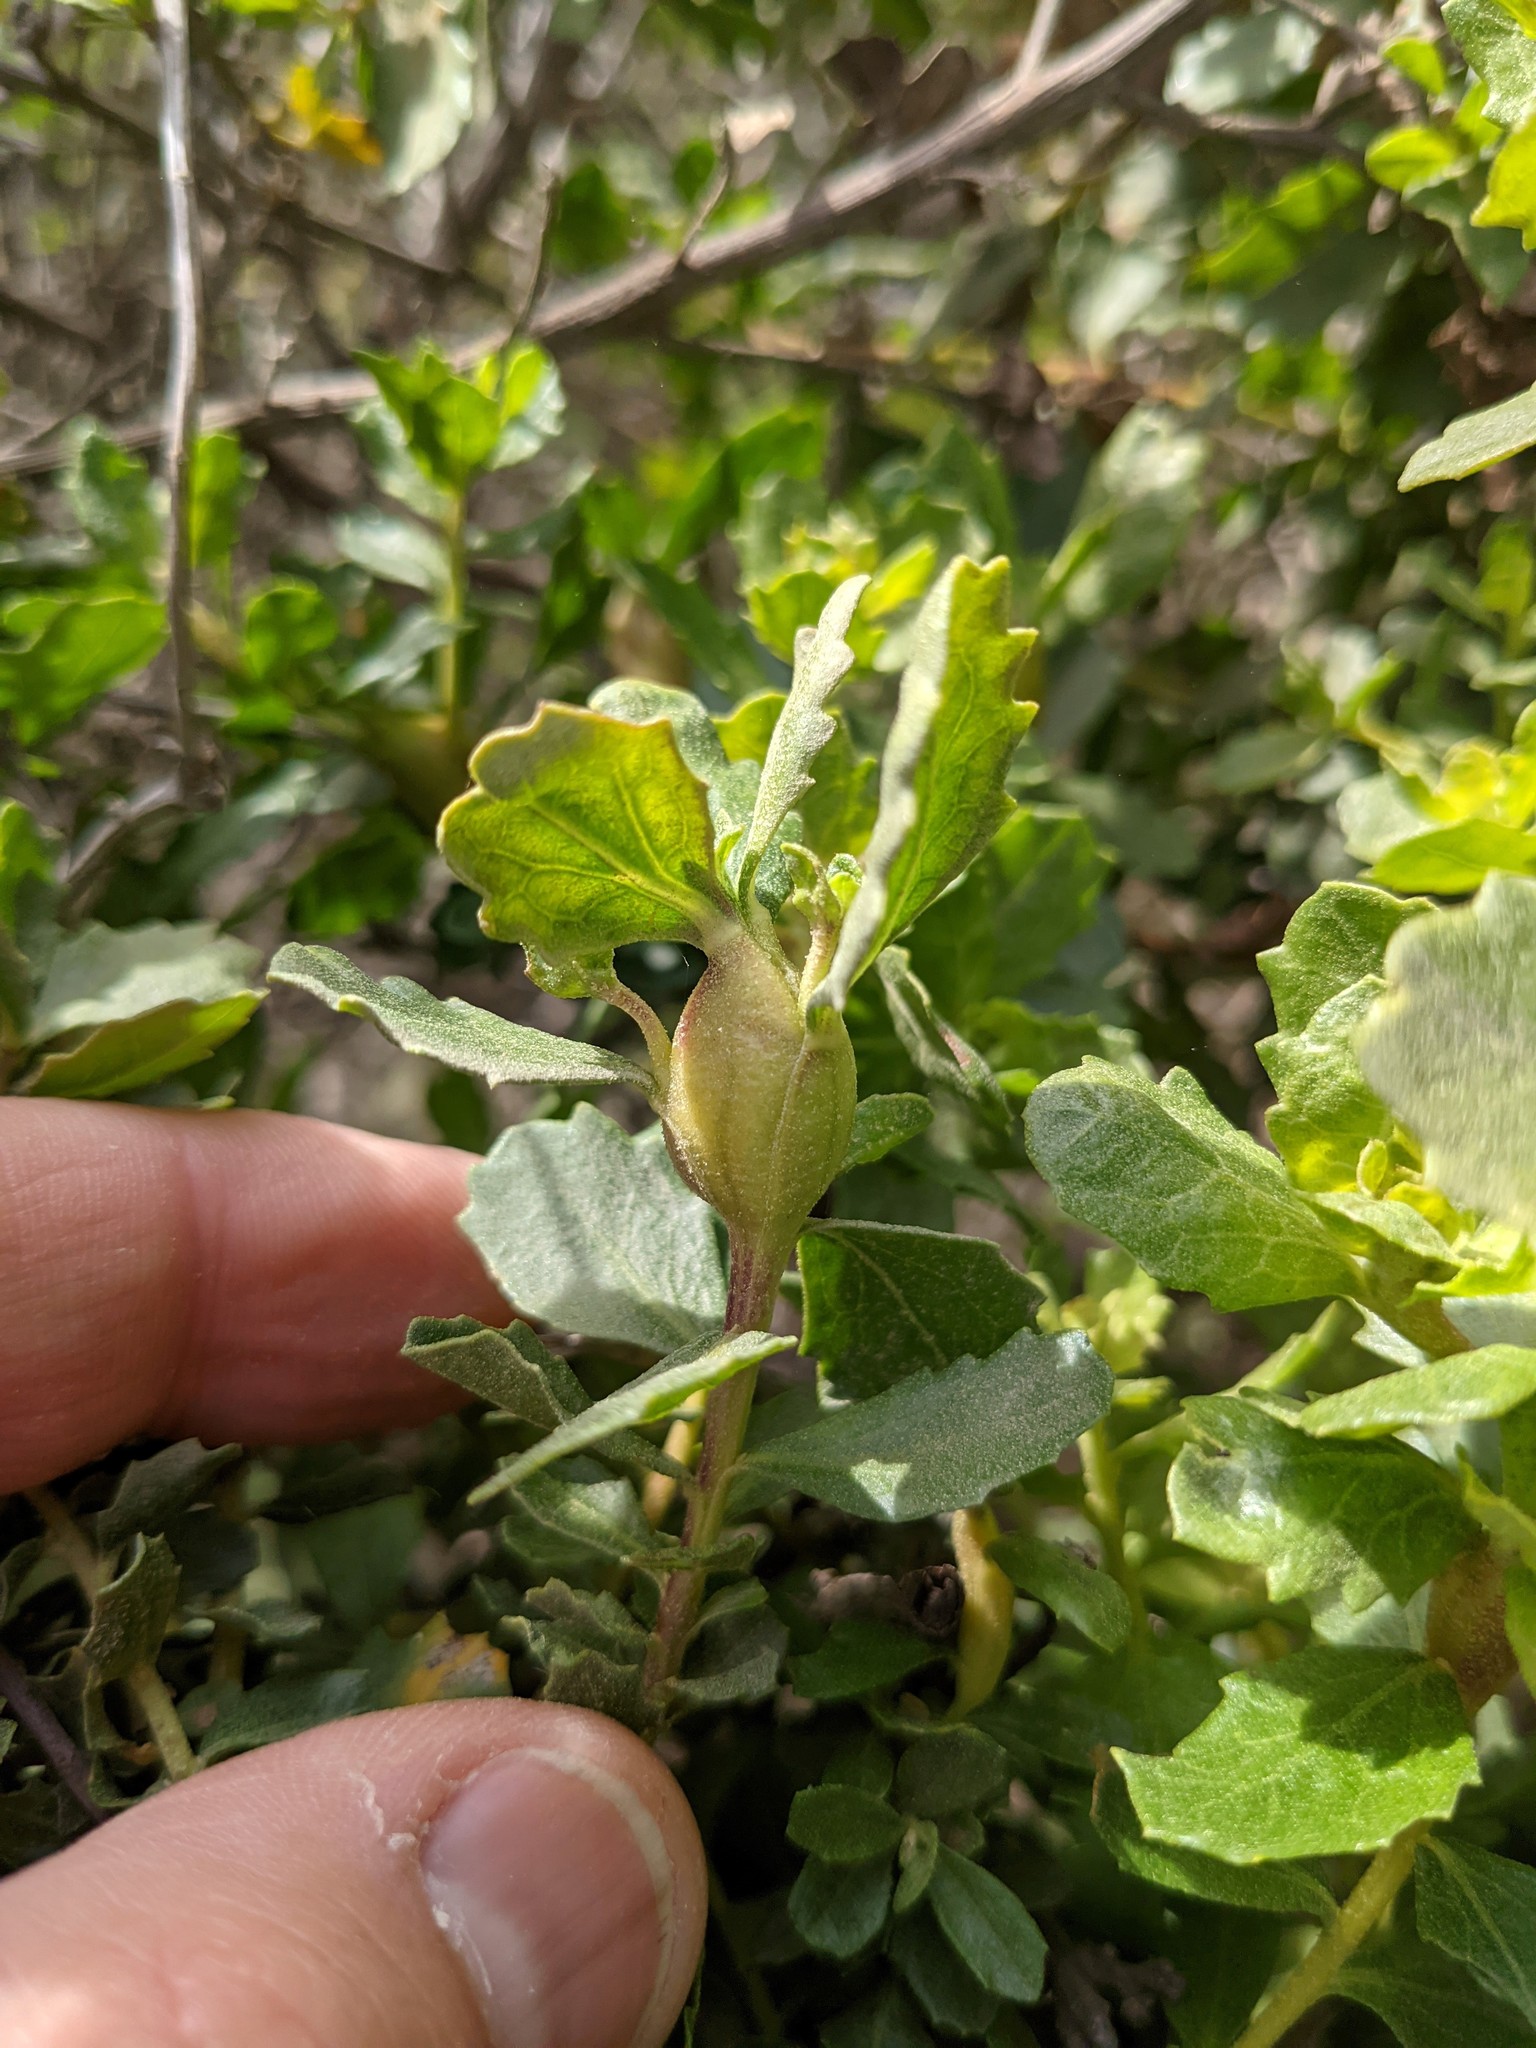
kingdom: Animalia
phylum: Arthropoda
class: Insecta
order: Lepidoptera
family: Gelechiidae
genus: Gnorimoschema
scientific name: Gnorimoschema baccharisella
